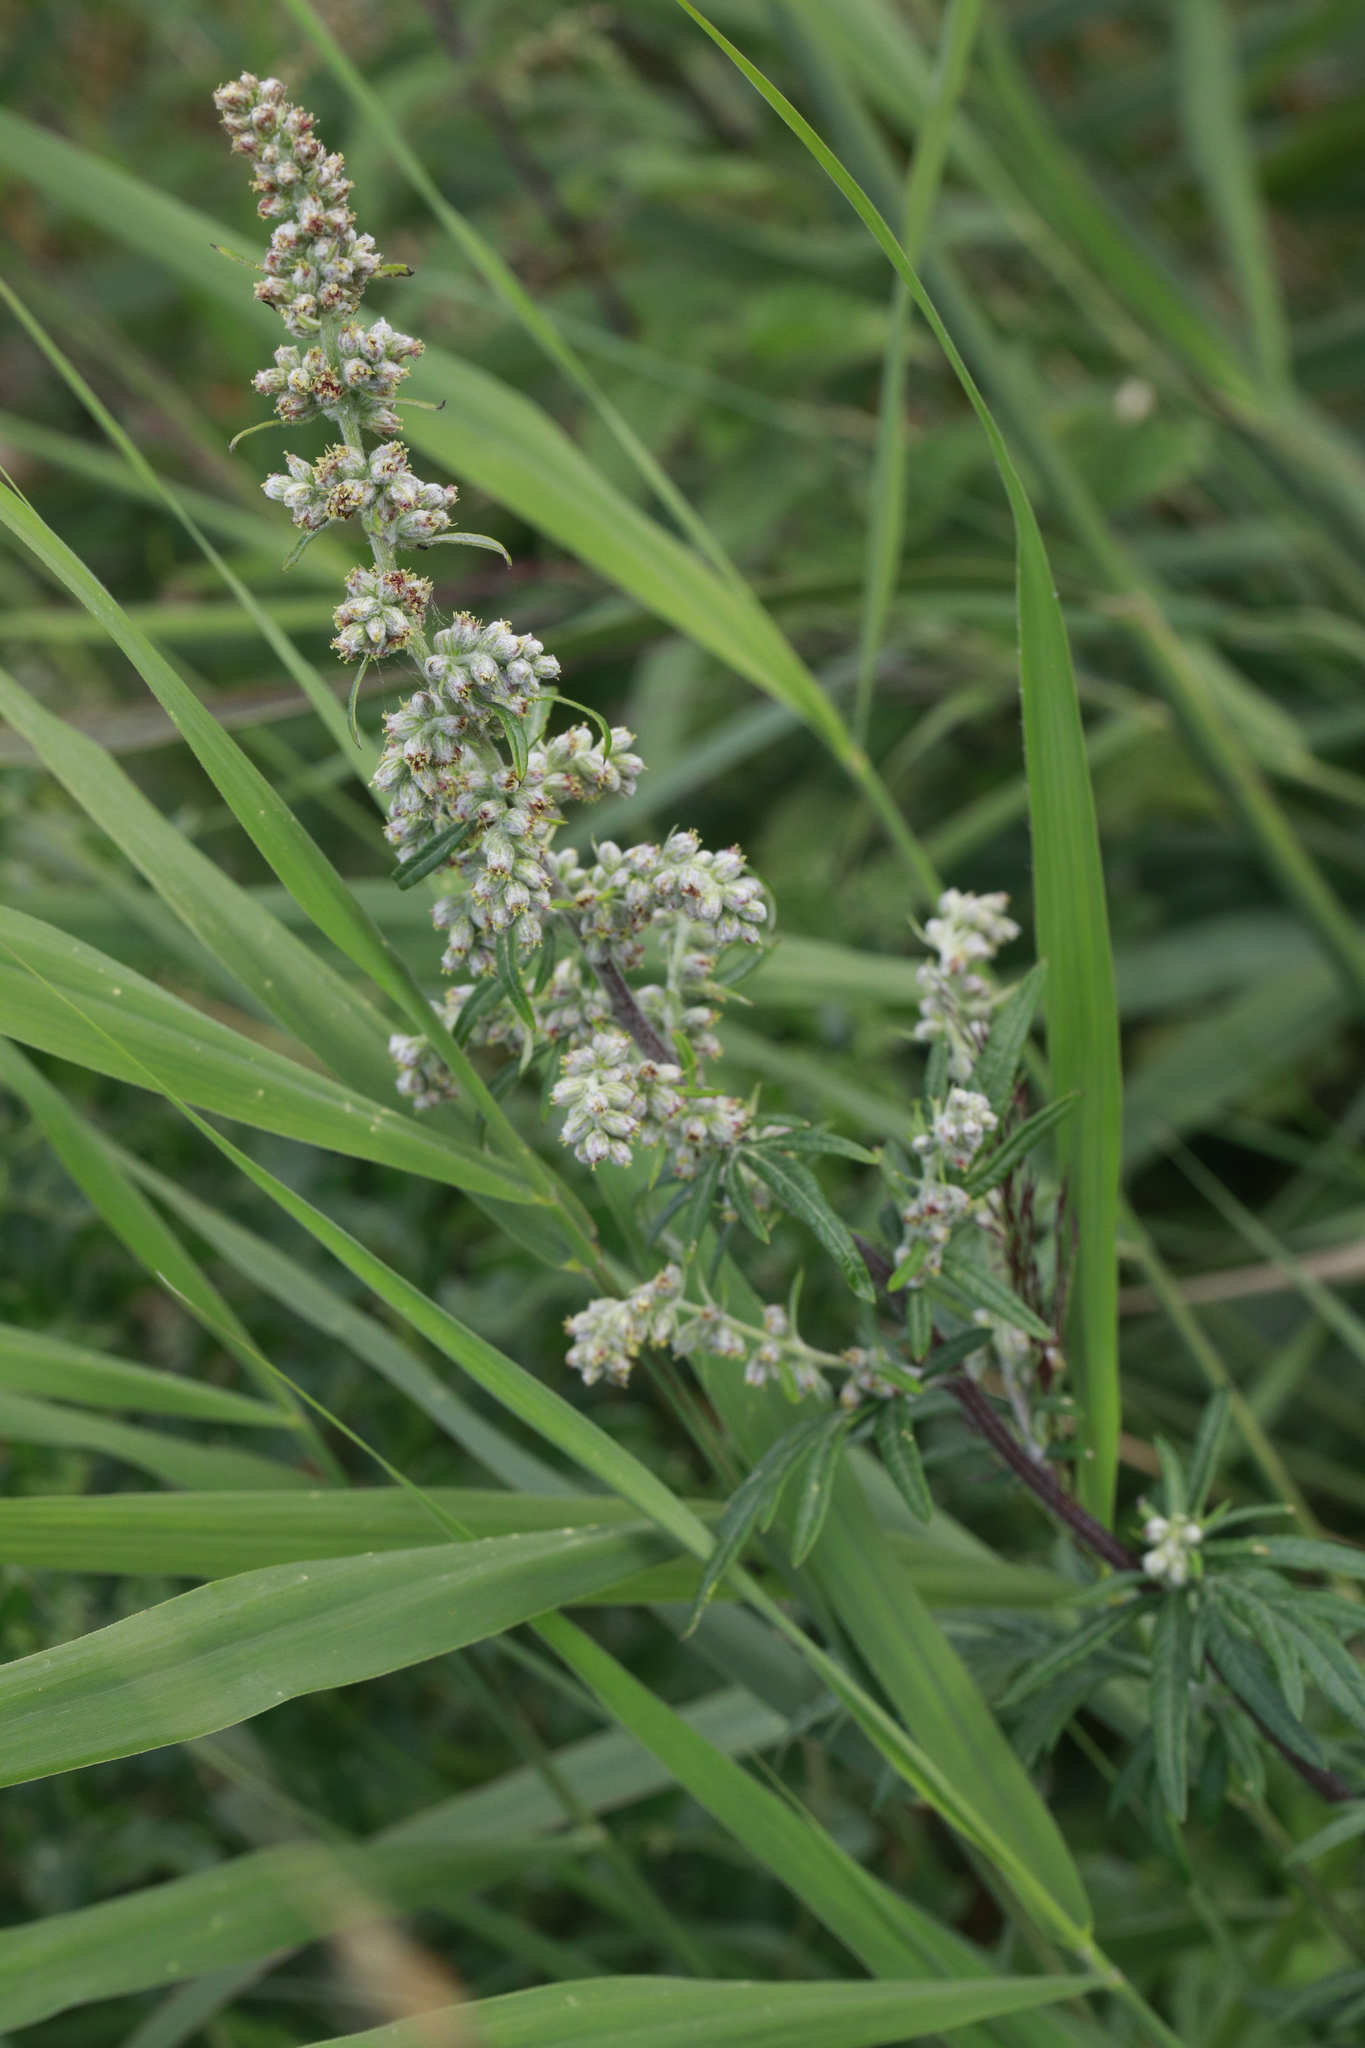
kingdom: Plantae
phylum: Tracheophyta
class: Magnoliopsida
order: Asterales
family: Asteraceae
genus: Artemisia
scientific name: Artemisia vulgaris
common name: Mugwort
